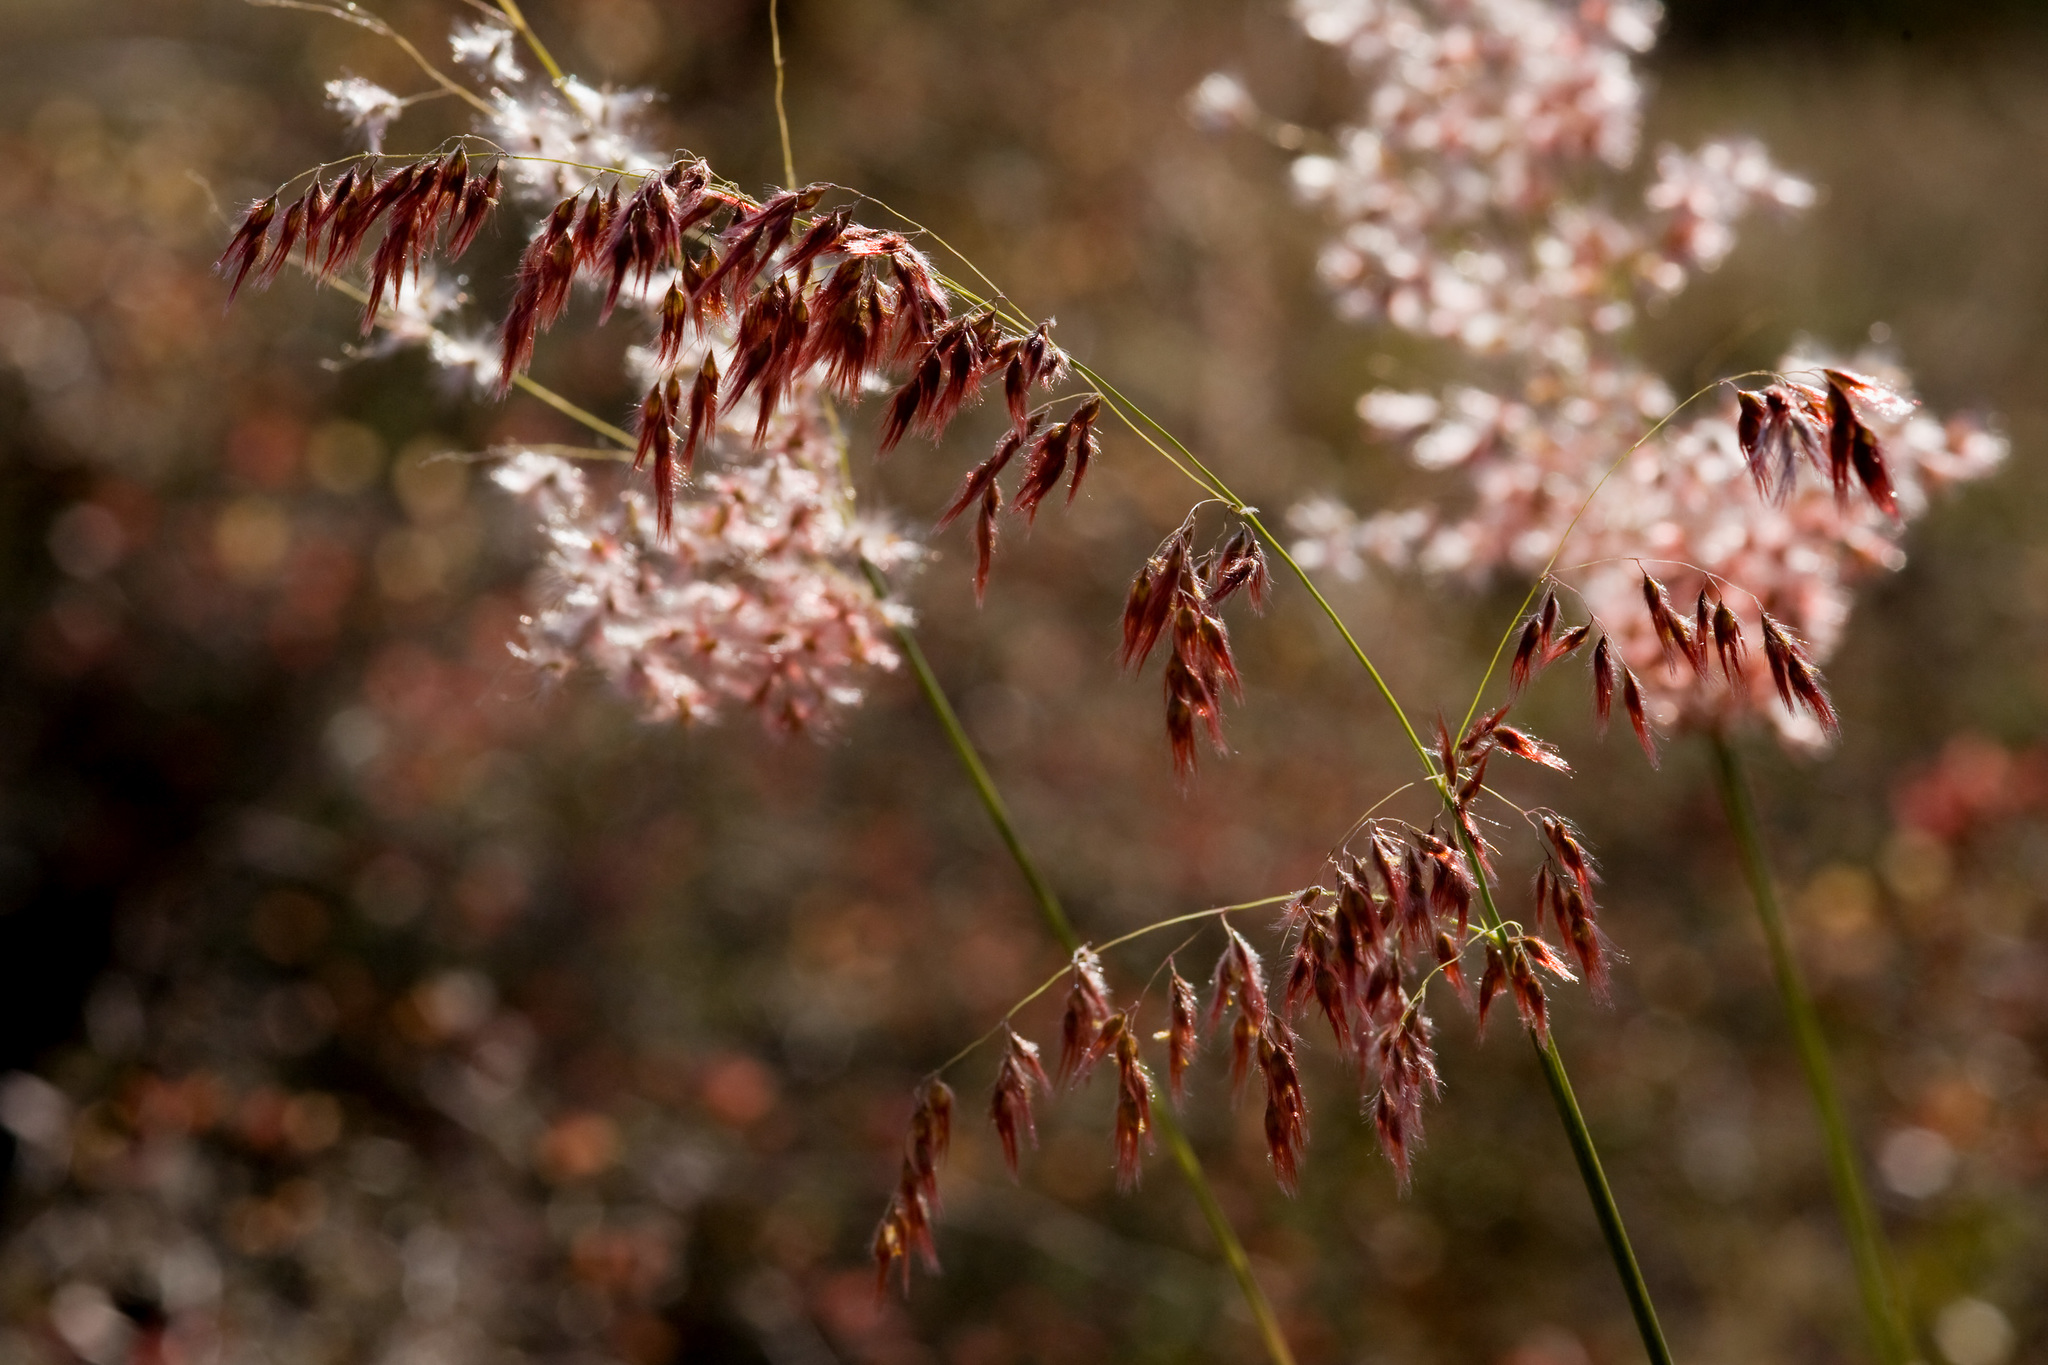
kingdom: Plantae
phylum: Tracheophyta
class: Liliopsida
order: Poales
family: Poaceae
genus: Melinis
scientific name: Melinis repens
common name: Rose natal grass
